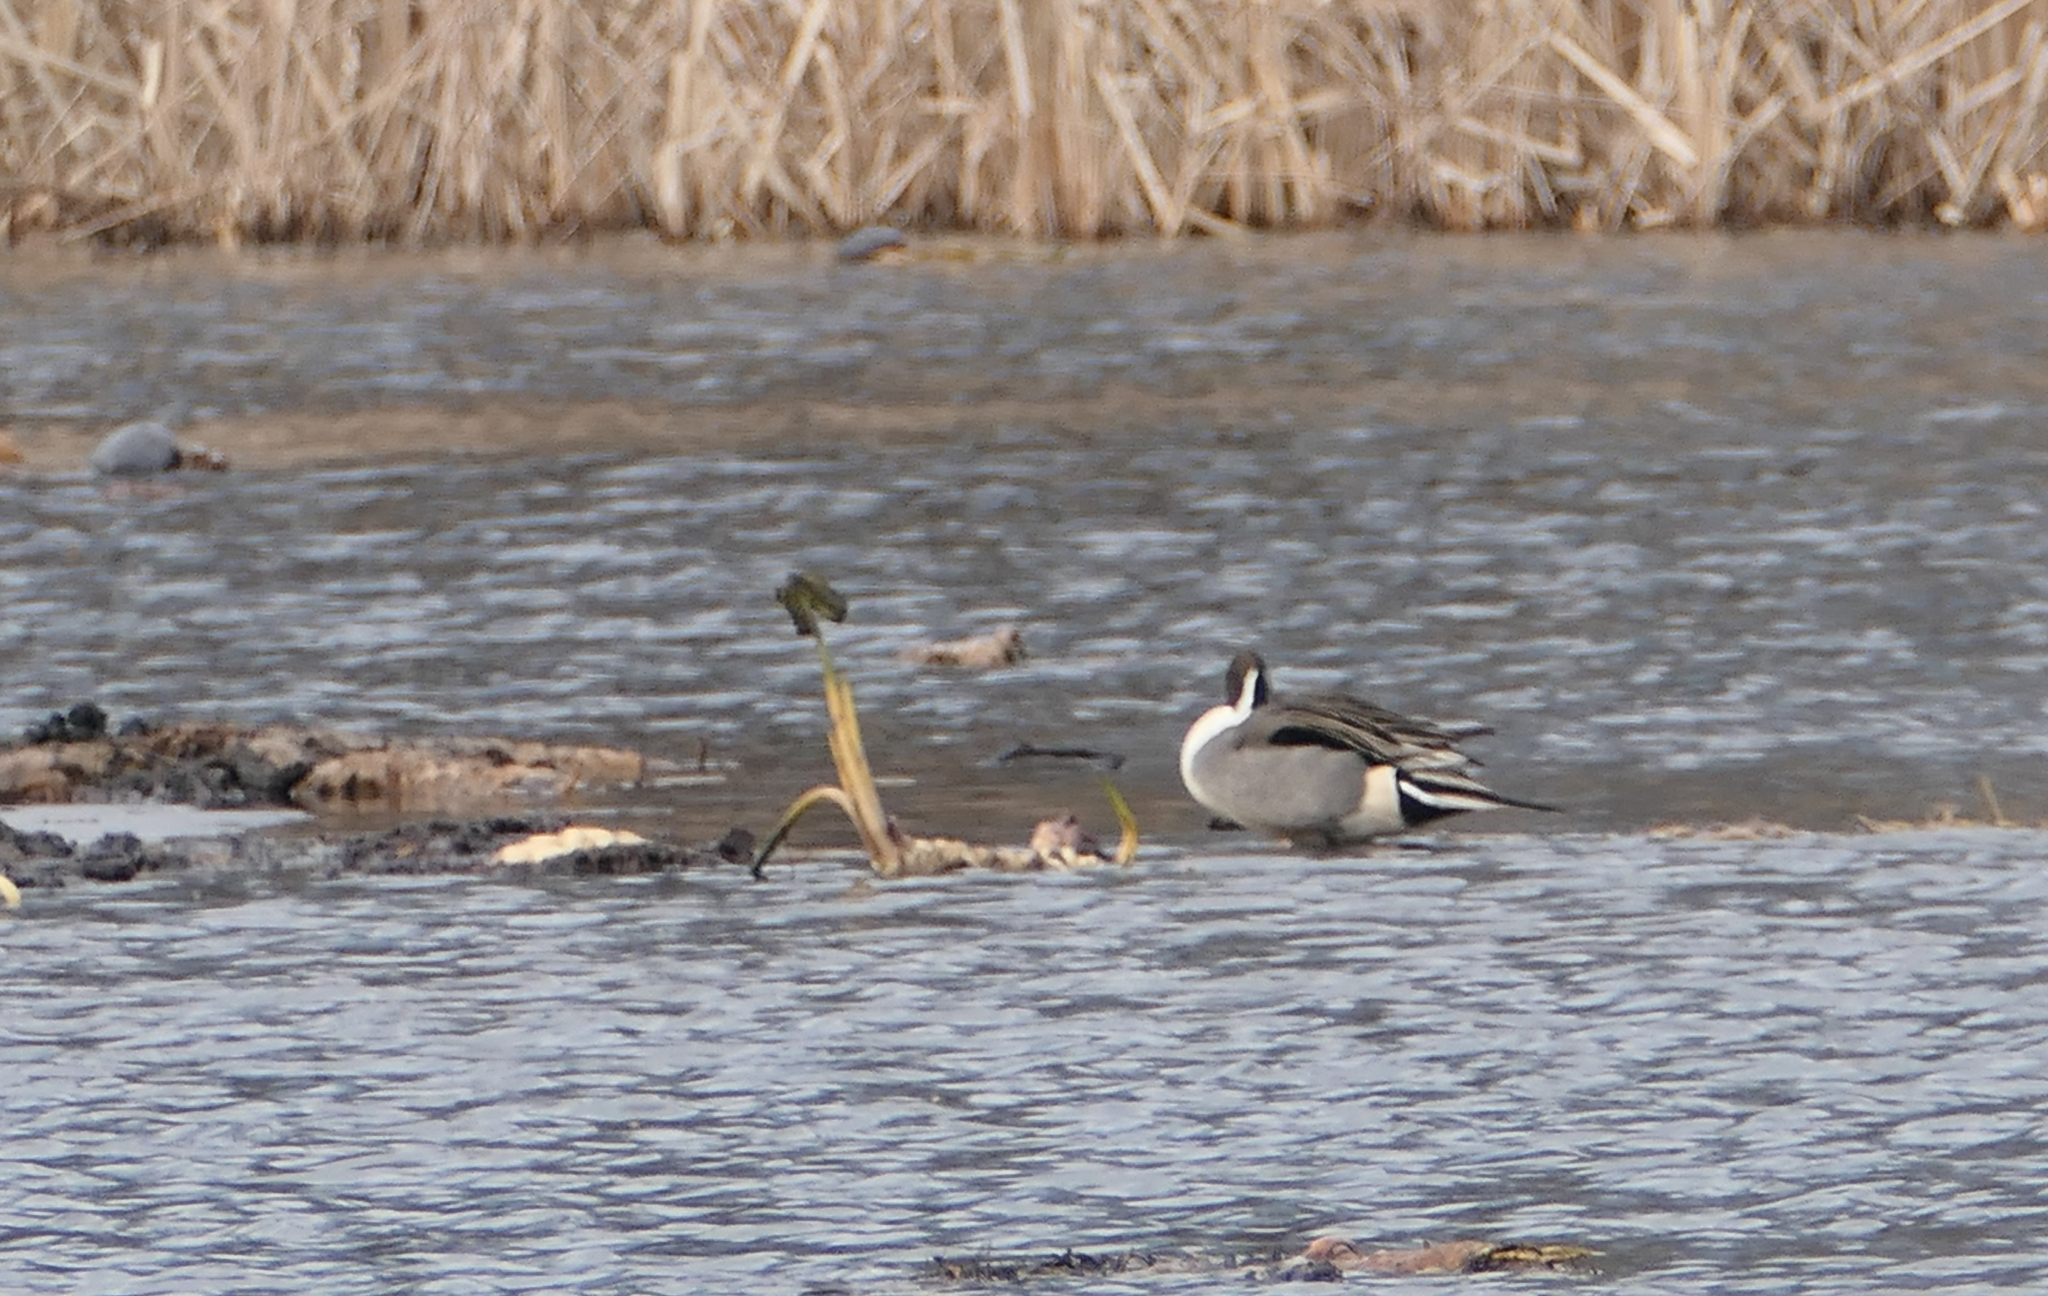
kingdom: Animalia
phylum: Chordata
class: Aves
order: Anseriformes
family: Anatidae
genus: Anas
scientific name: Anas acuta
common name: Northern pintail
